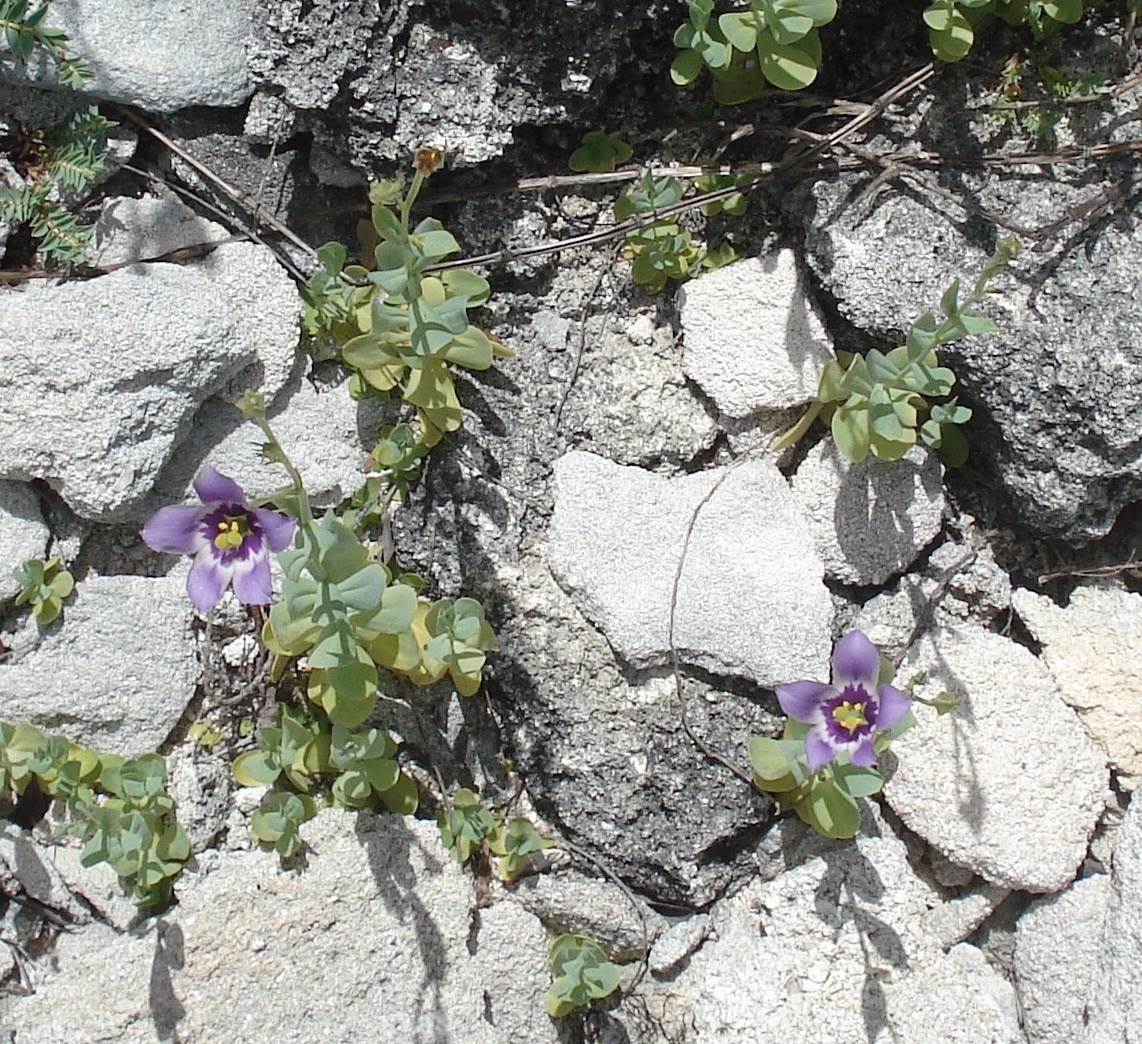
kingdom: Plantae
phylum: Tracheophyta
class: Magnoliopsida
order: Gentianales
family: Gentianaceae
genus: Eustoma
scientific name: Eustoma exaltatum
